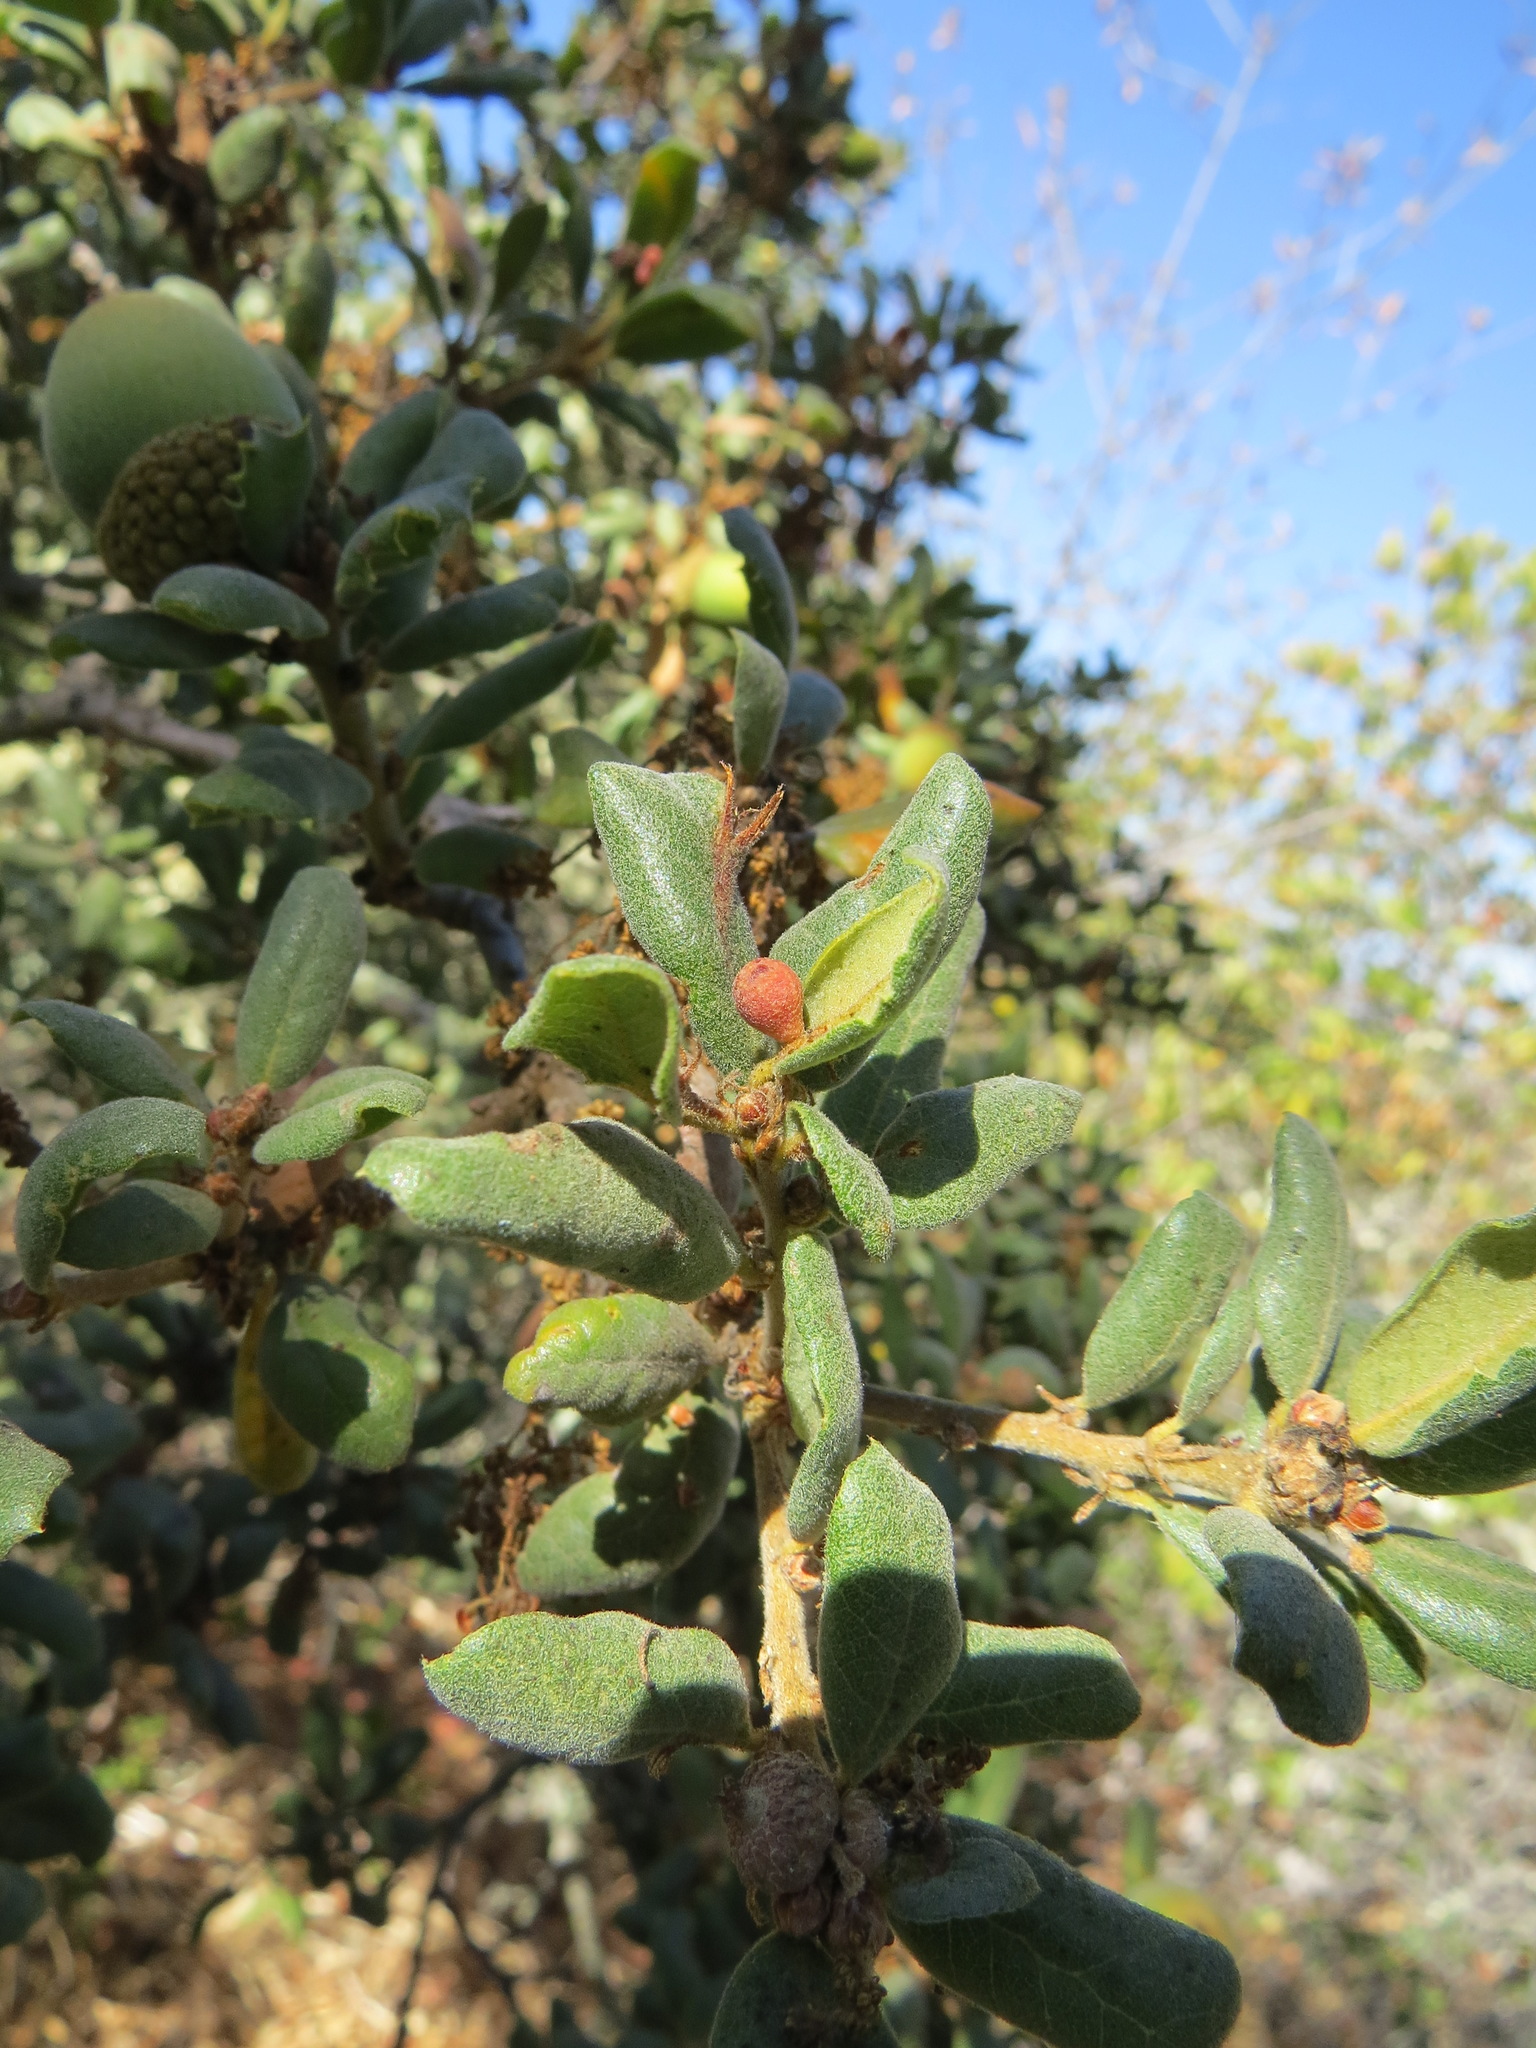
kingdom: Animalia
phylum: Arthropoda
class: Insecta
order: Hymenoptera
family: Cynipidae
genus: Andricus
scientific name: Andricus
